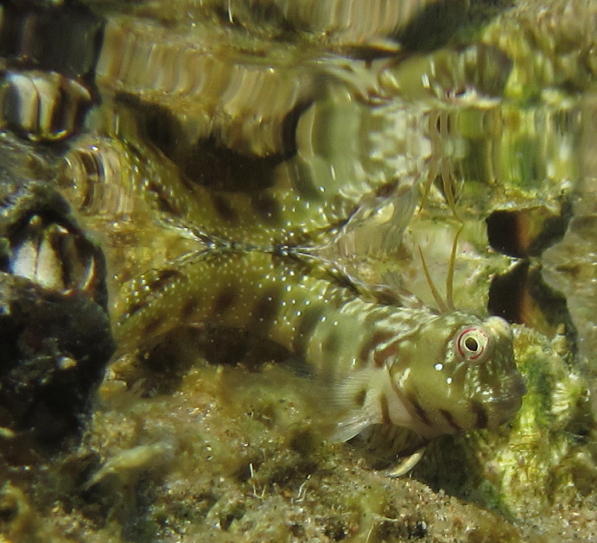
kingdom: Animalia
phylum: Chordata
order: Perciformes
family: Blenniidae
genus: Antennablennius
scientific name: Antennablennius bifilum
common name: Horned rockskipper
